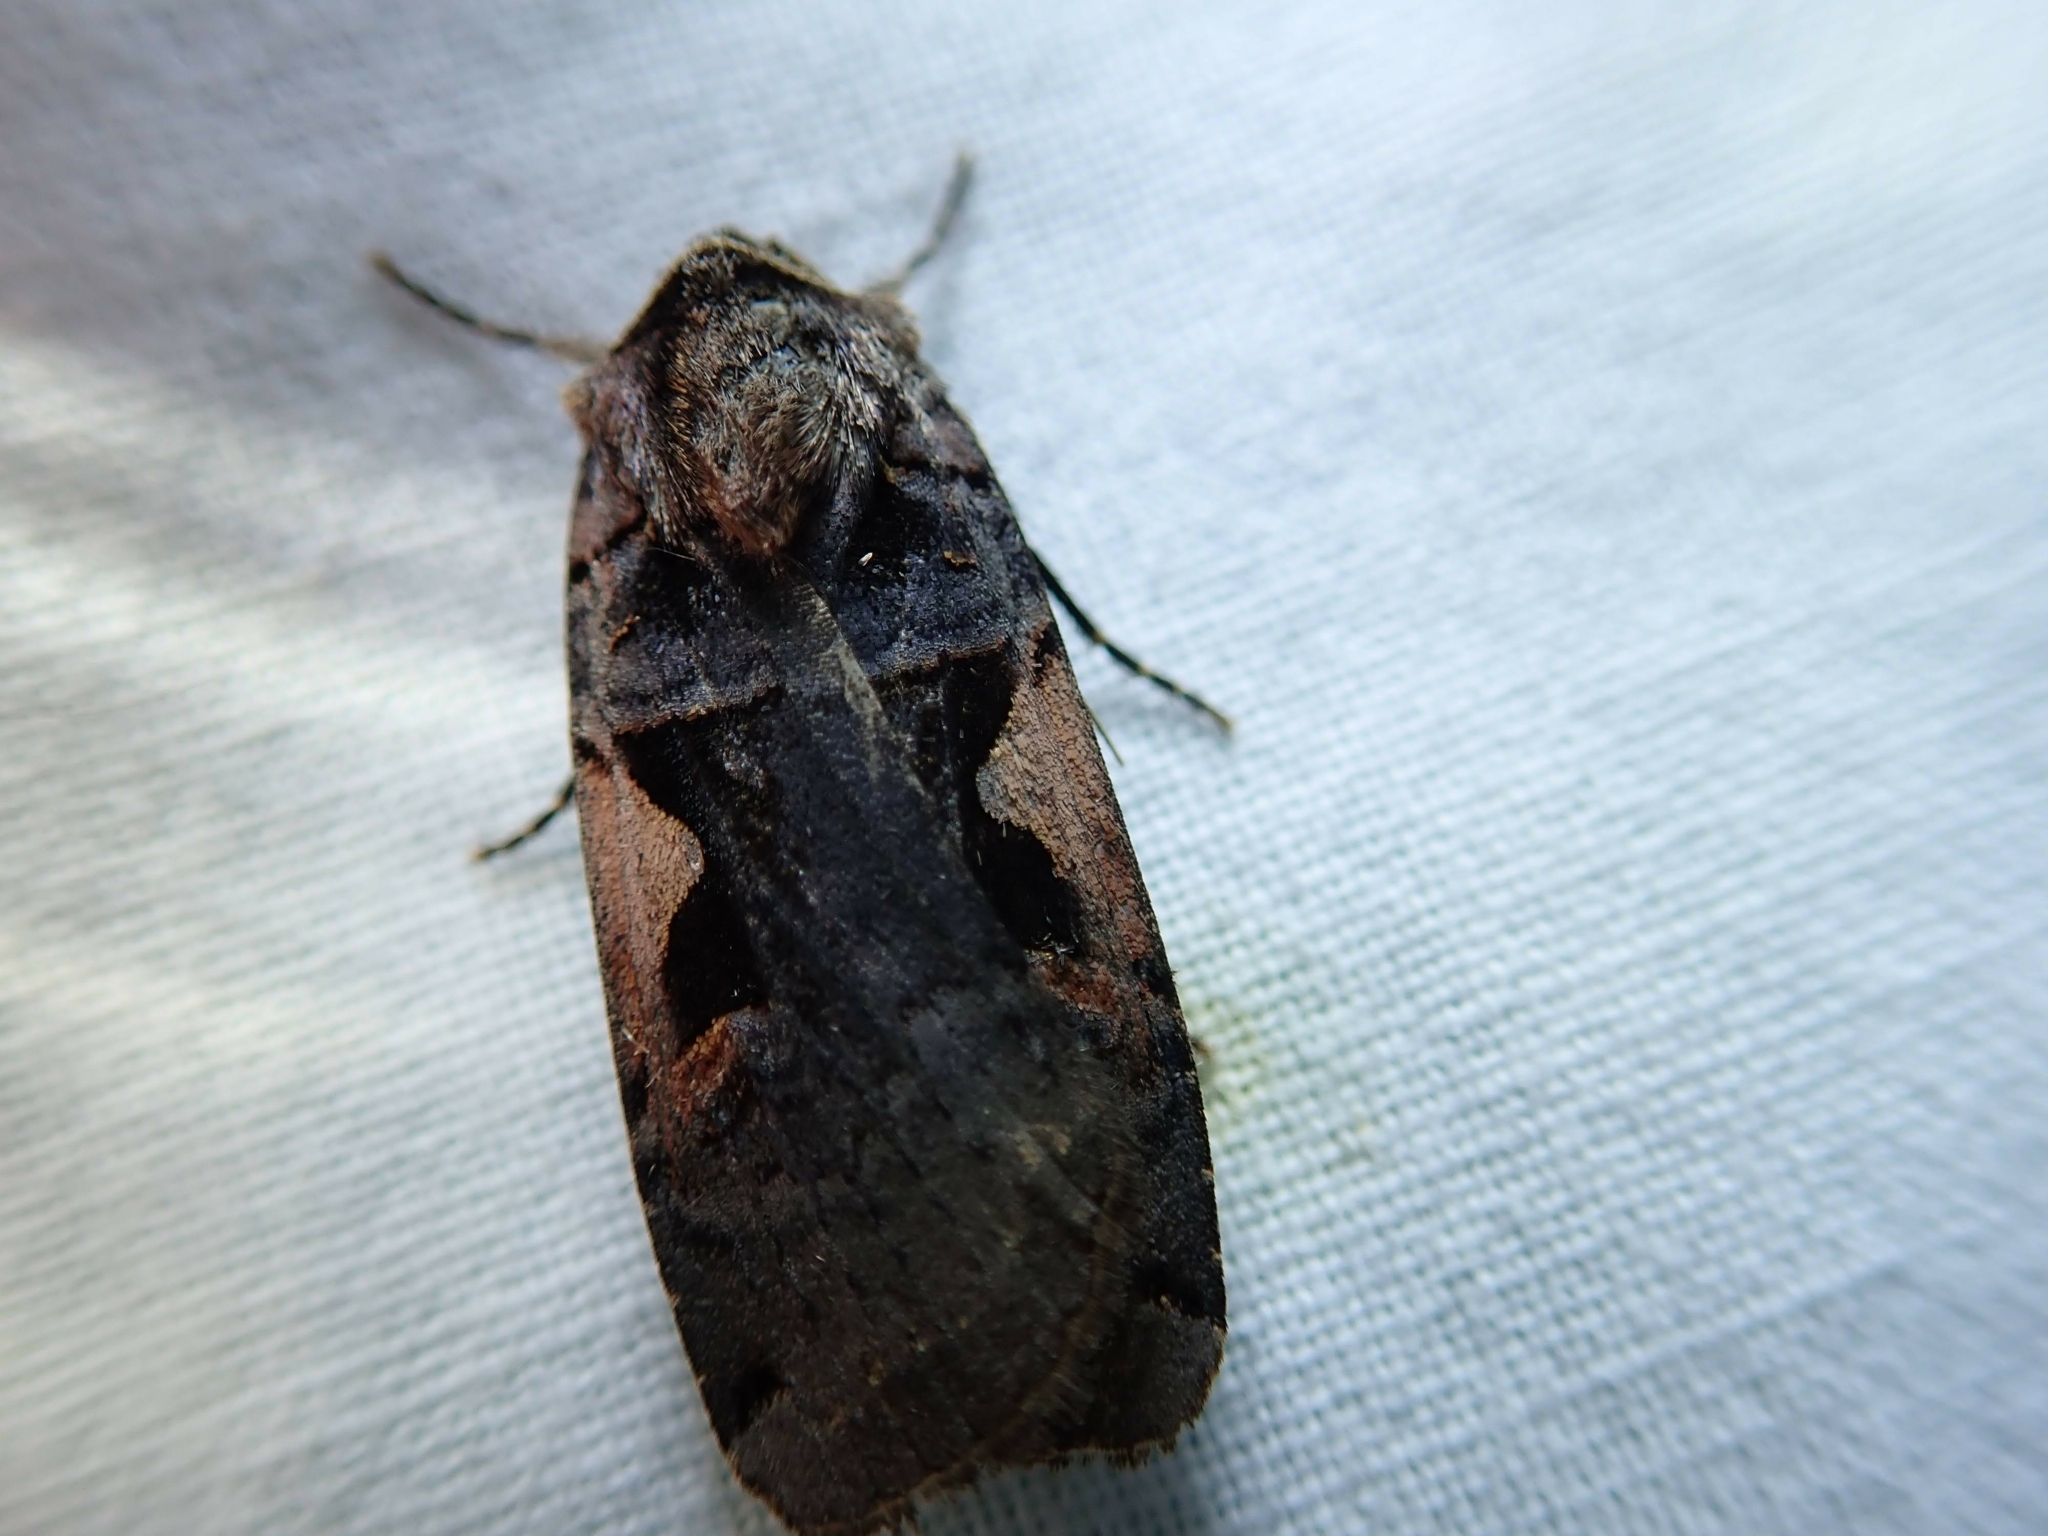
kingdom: Animalia
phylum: Arthropoda
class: Insecta
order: Lepidoptera
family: Noctuidae
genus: Xestia
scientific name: Xestia dolosa
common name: Cutworm moth
